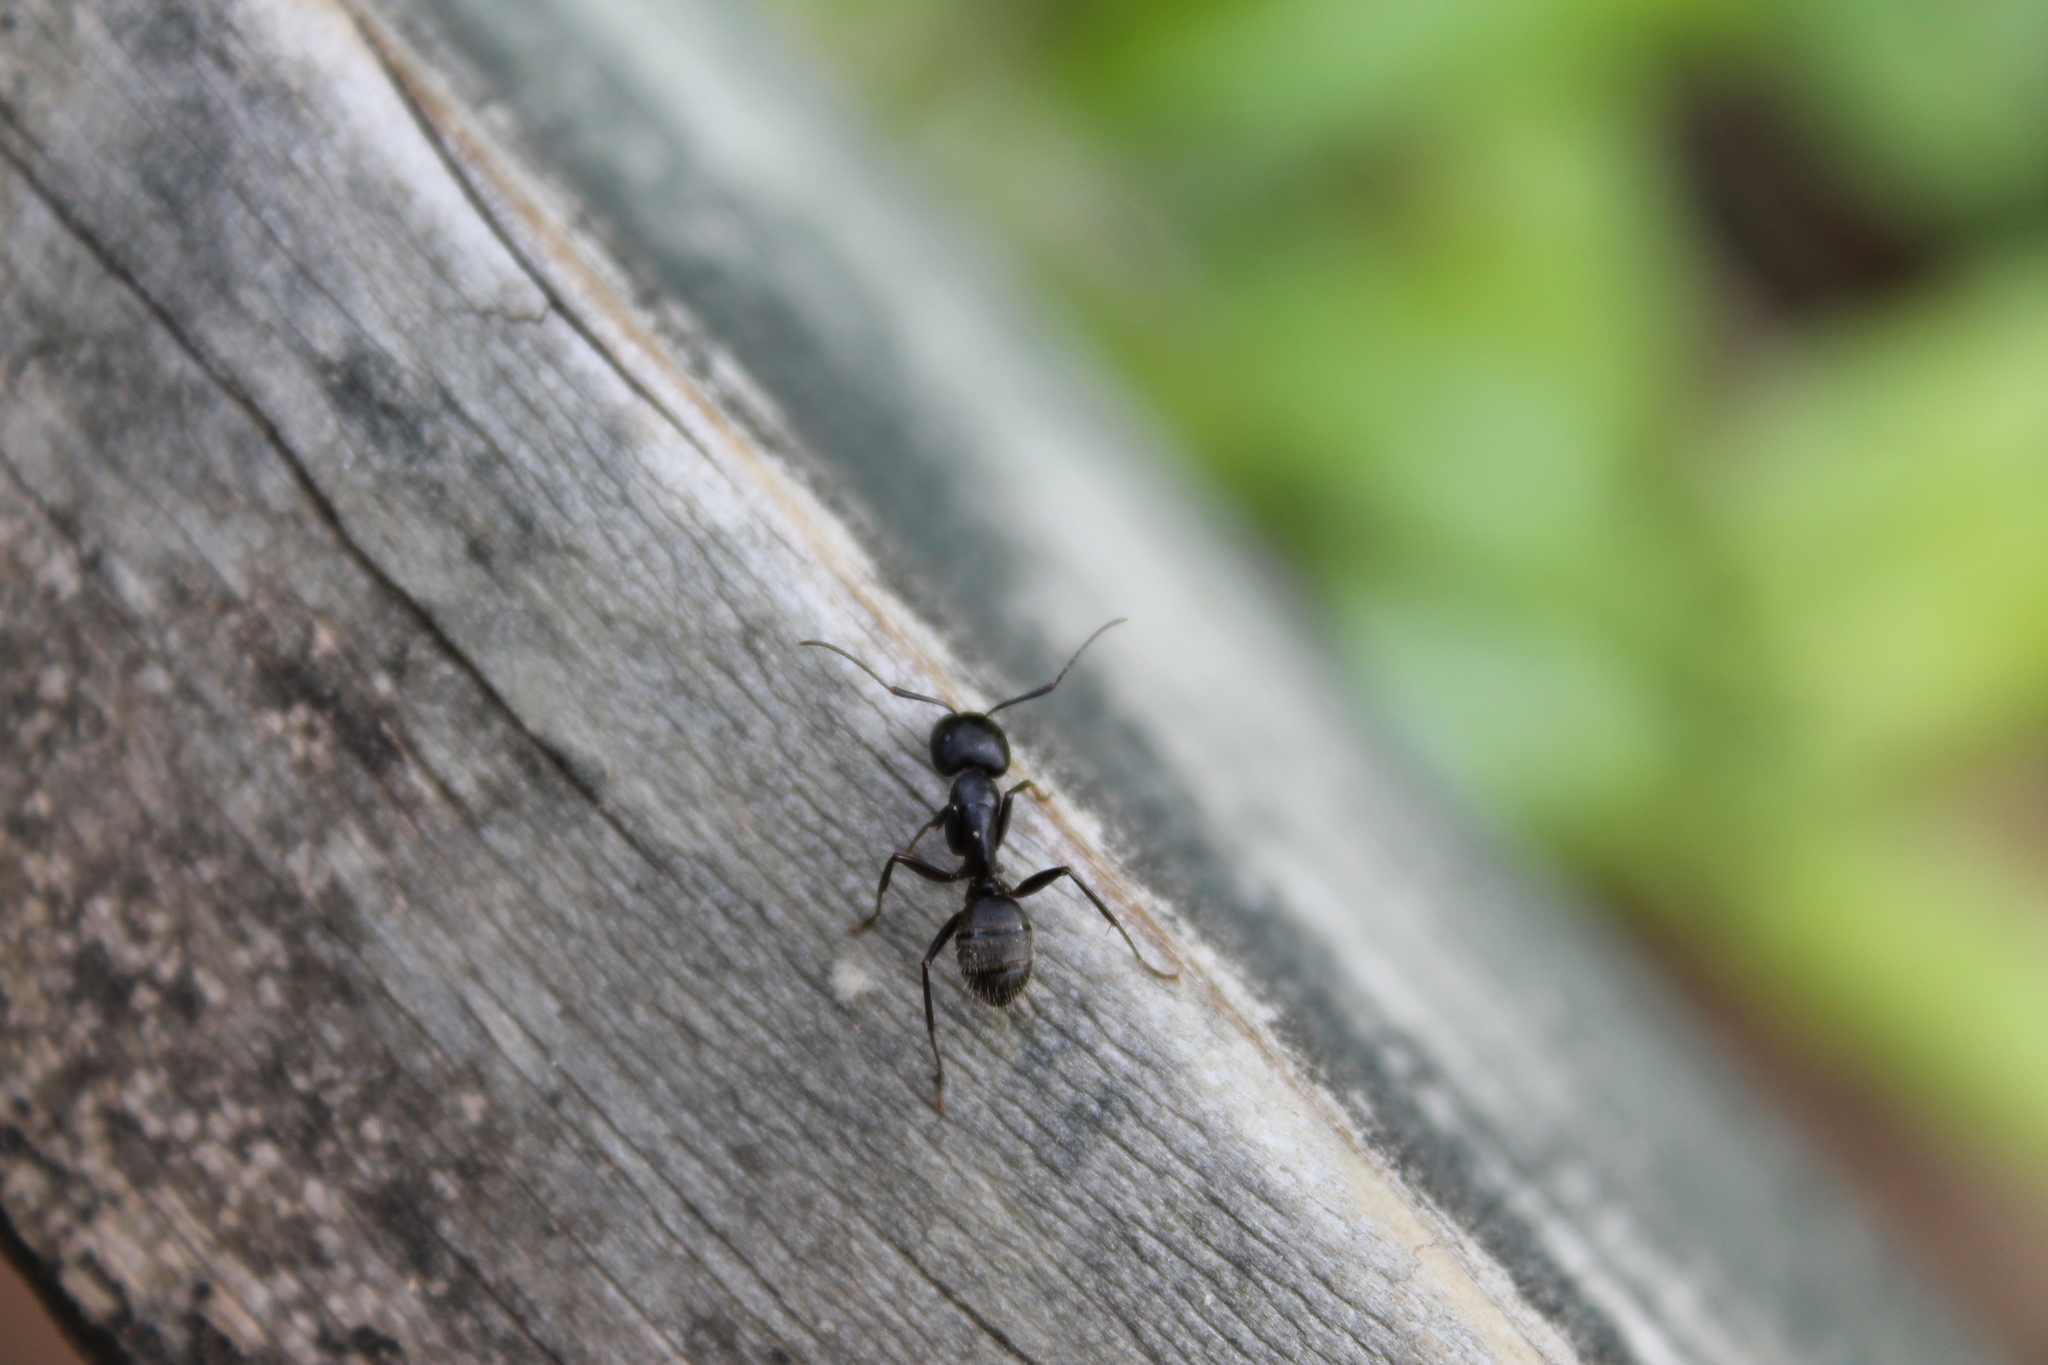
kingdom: Animalia
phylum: Arthropoda
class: Insecta
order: Hymenoptera
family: Formicidae
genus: Camponotus
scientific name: Camponotus pennsylvanicus
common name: Black carpenter ant
